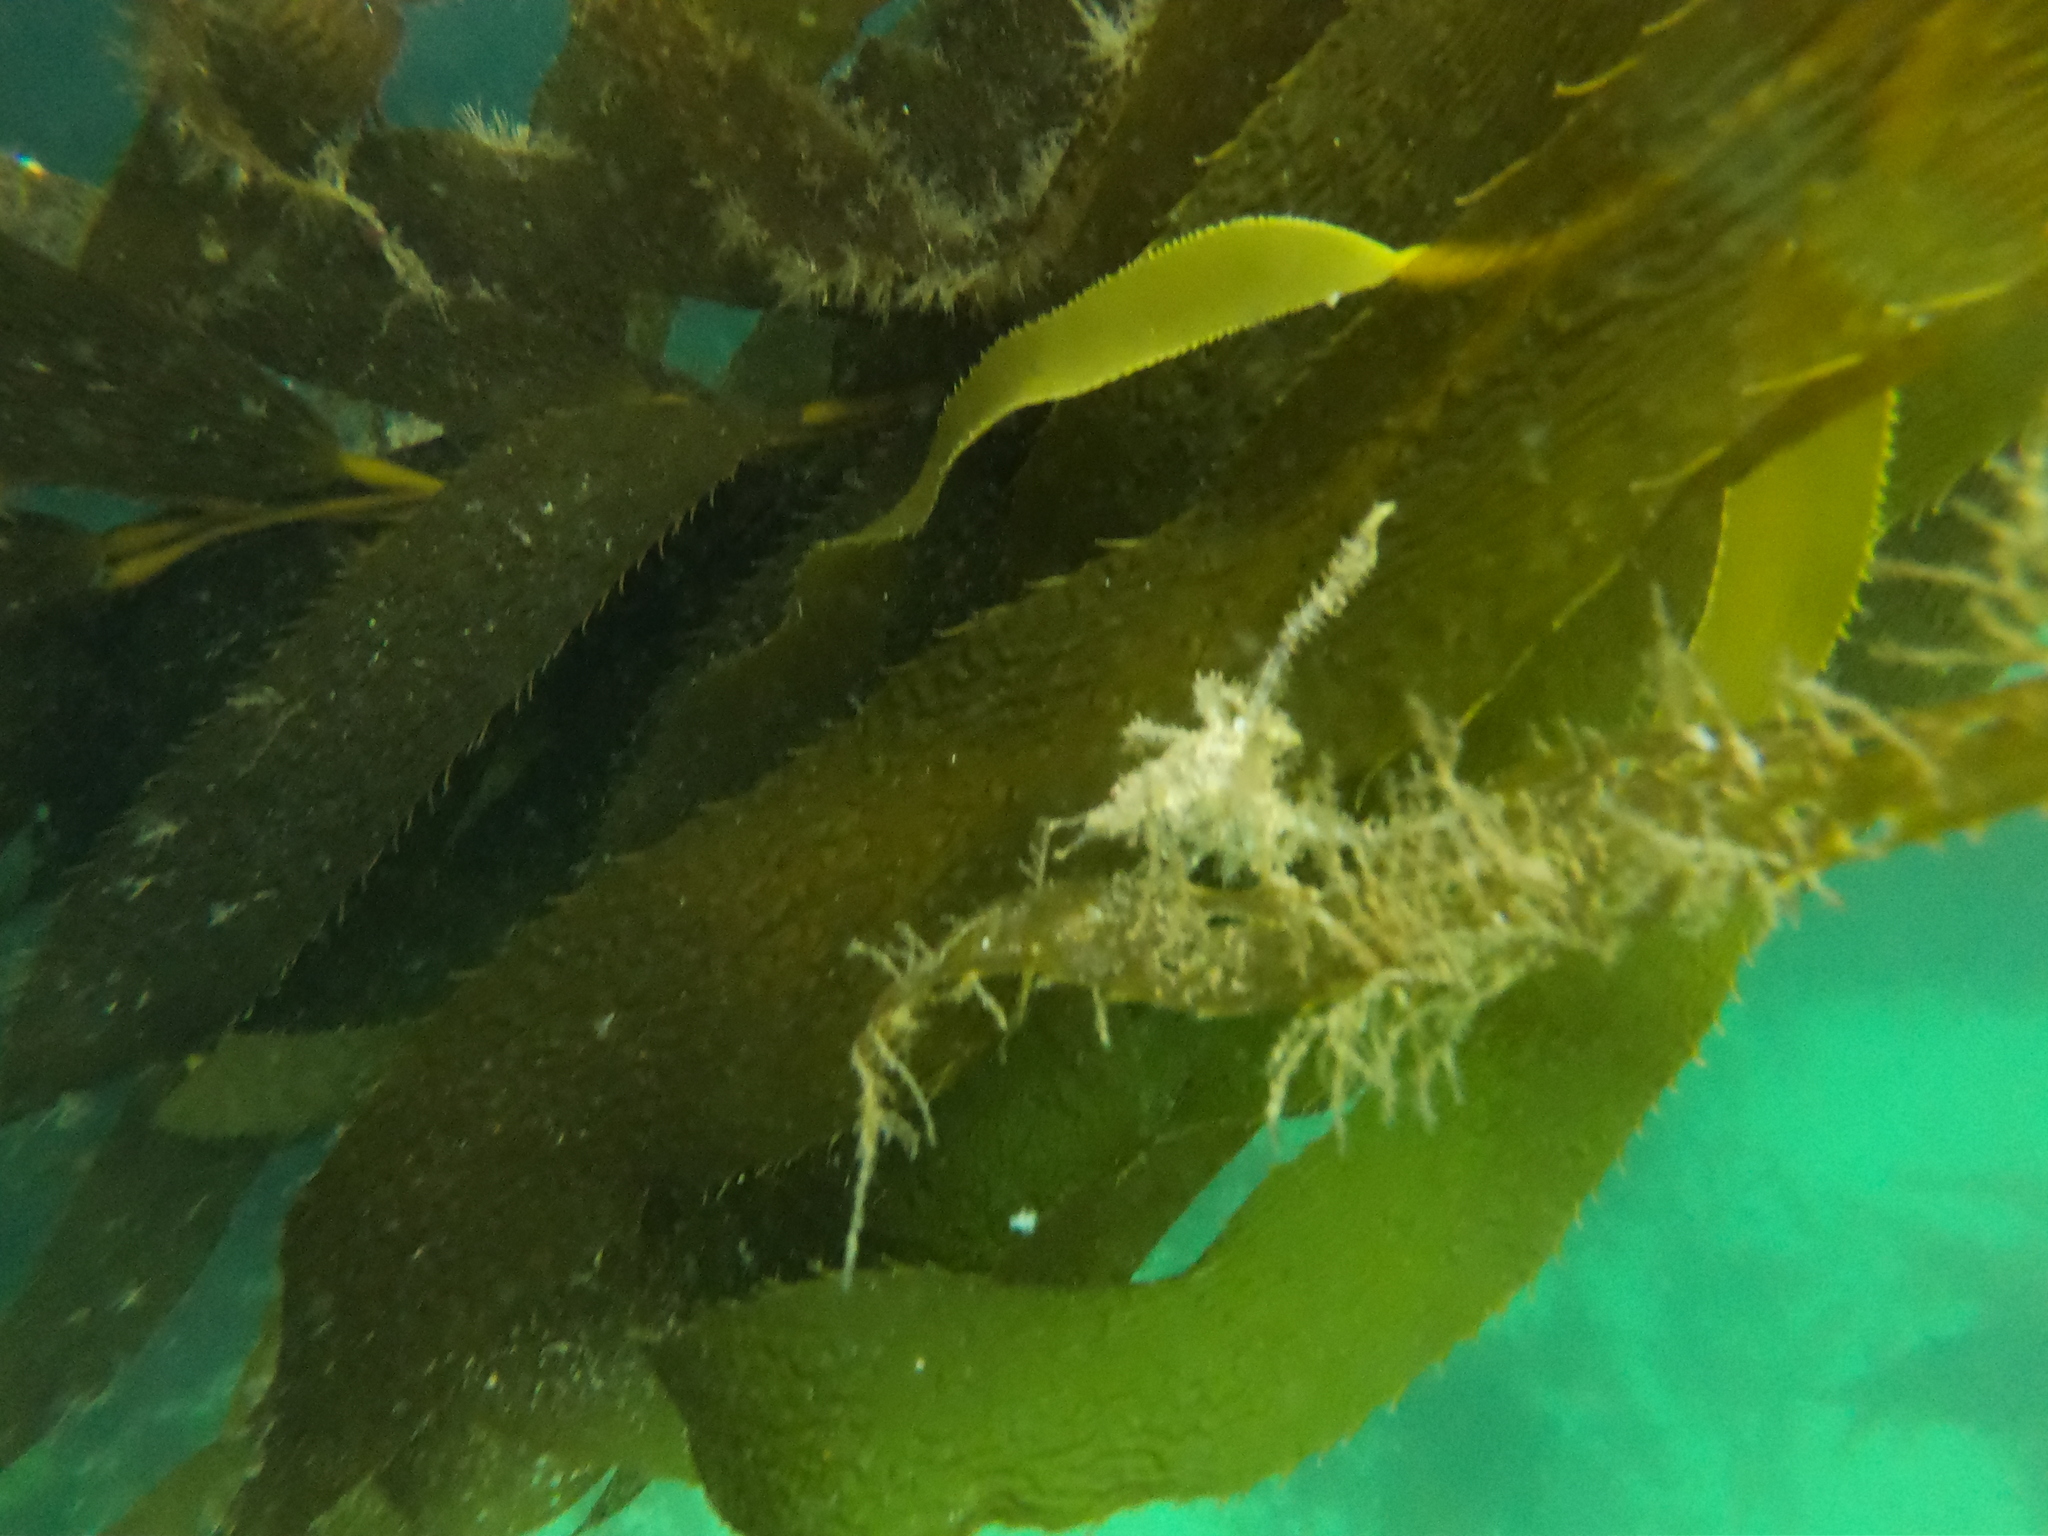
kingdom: Animalia
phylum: Arthropoda
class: Malacostraca
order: Decapoda
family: Inachidae
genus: Eurypodius
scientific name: Eurypodius longirostris
